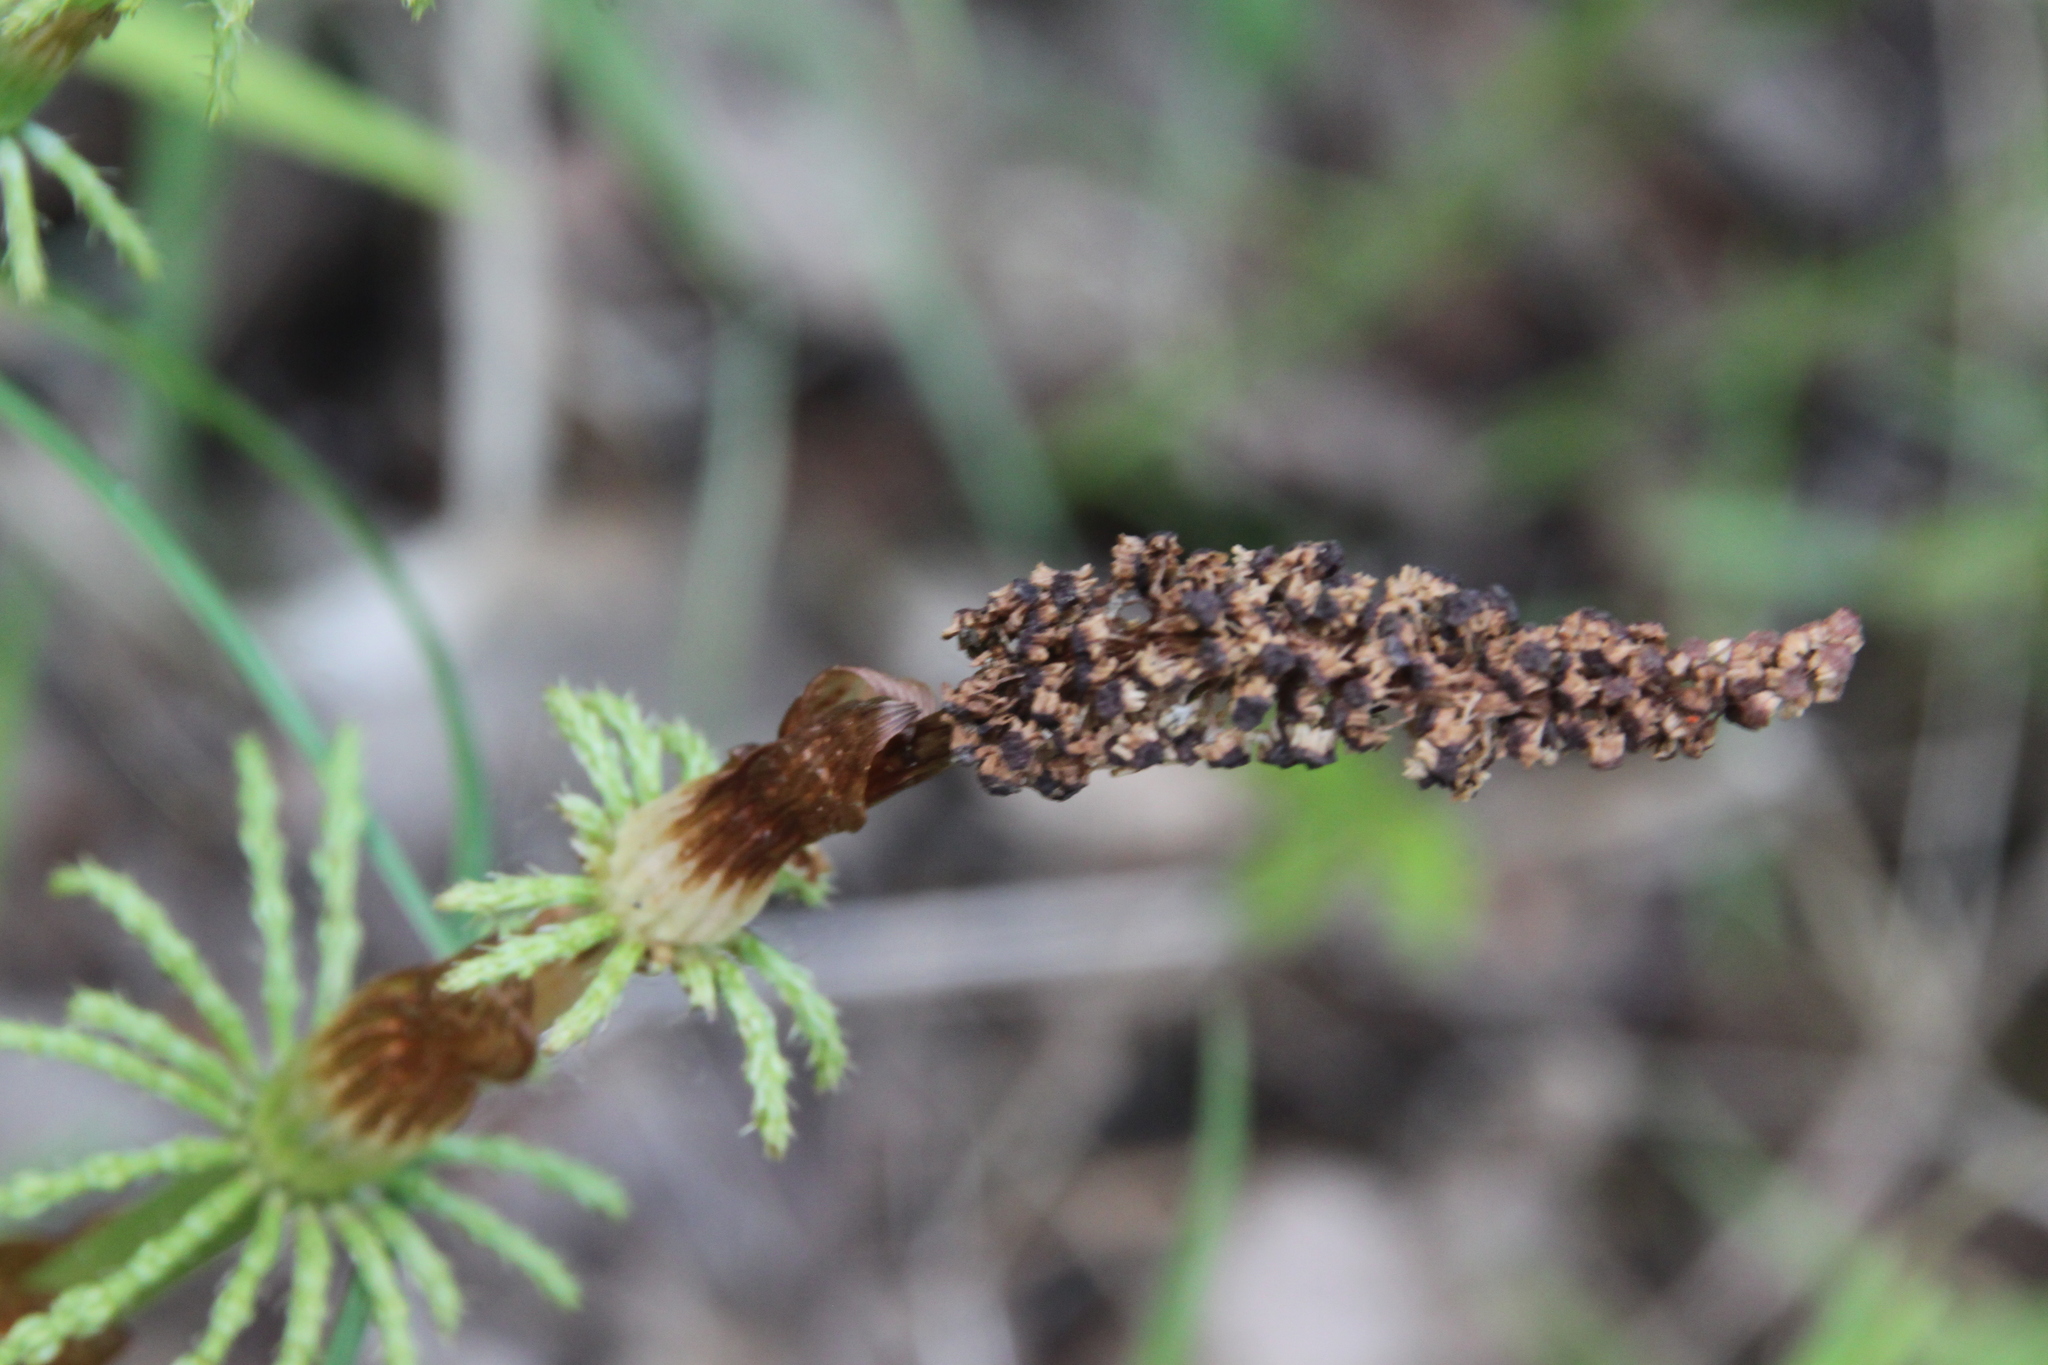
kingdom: Plantae
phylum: Tracheophyta
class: Polypodiopsida
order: Equisetales
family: Equisetaceae
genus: Equisetum
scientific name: Equisetum sylvaticum
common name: Wood horsetail
